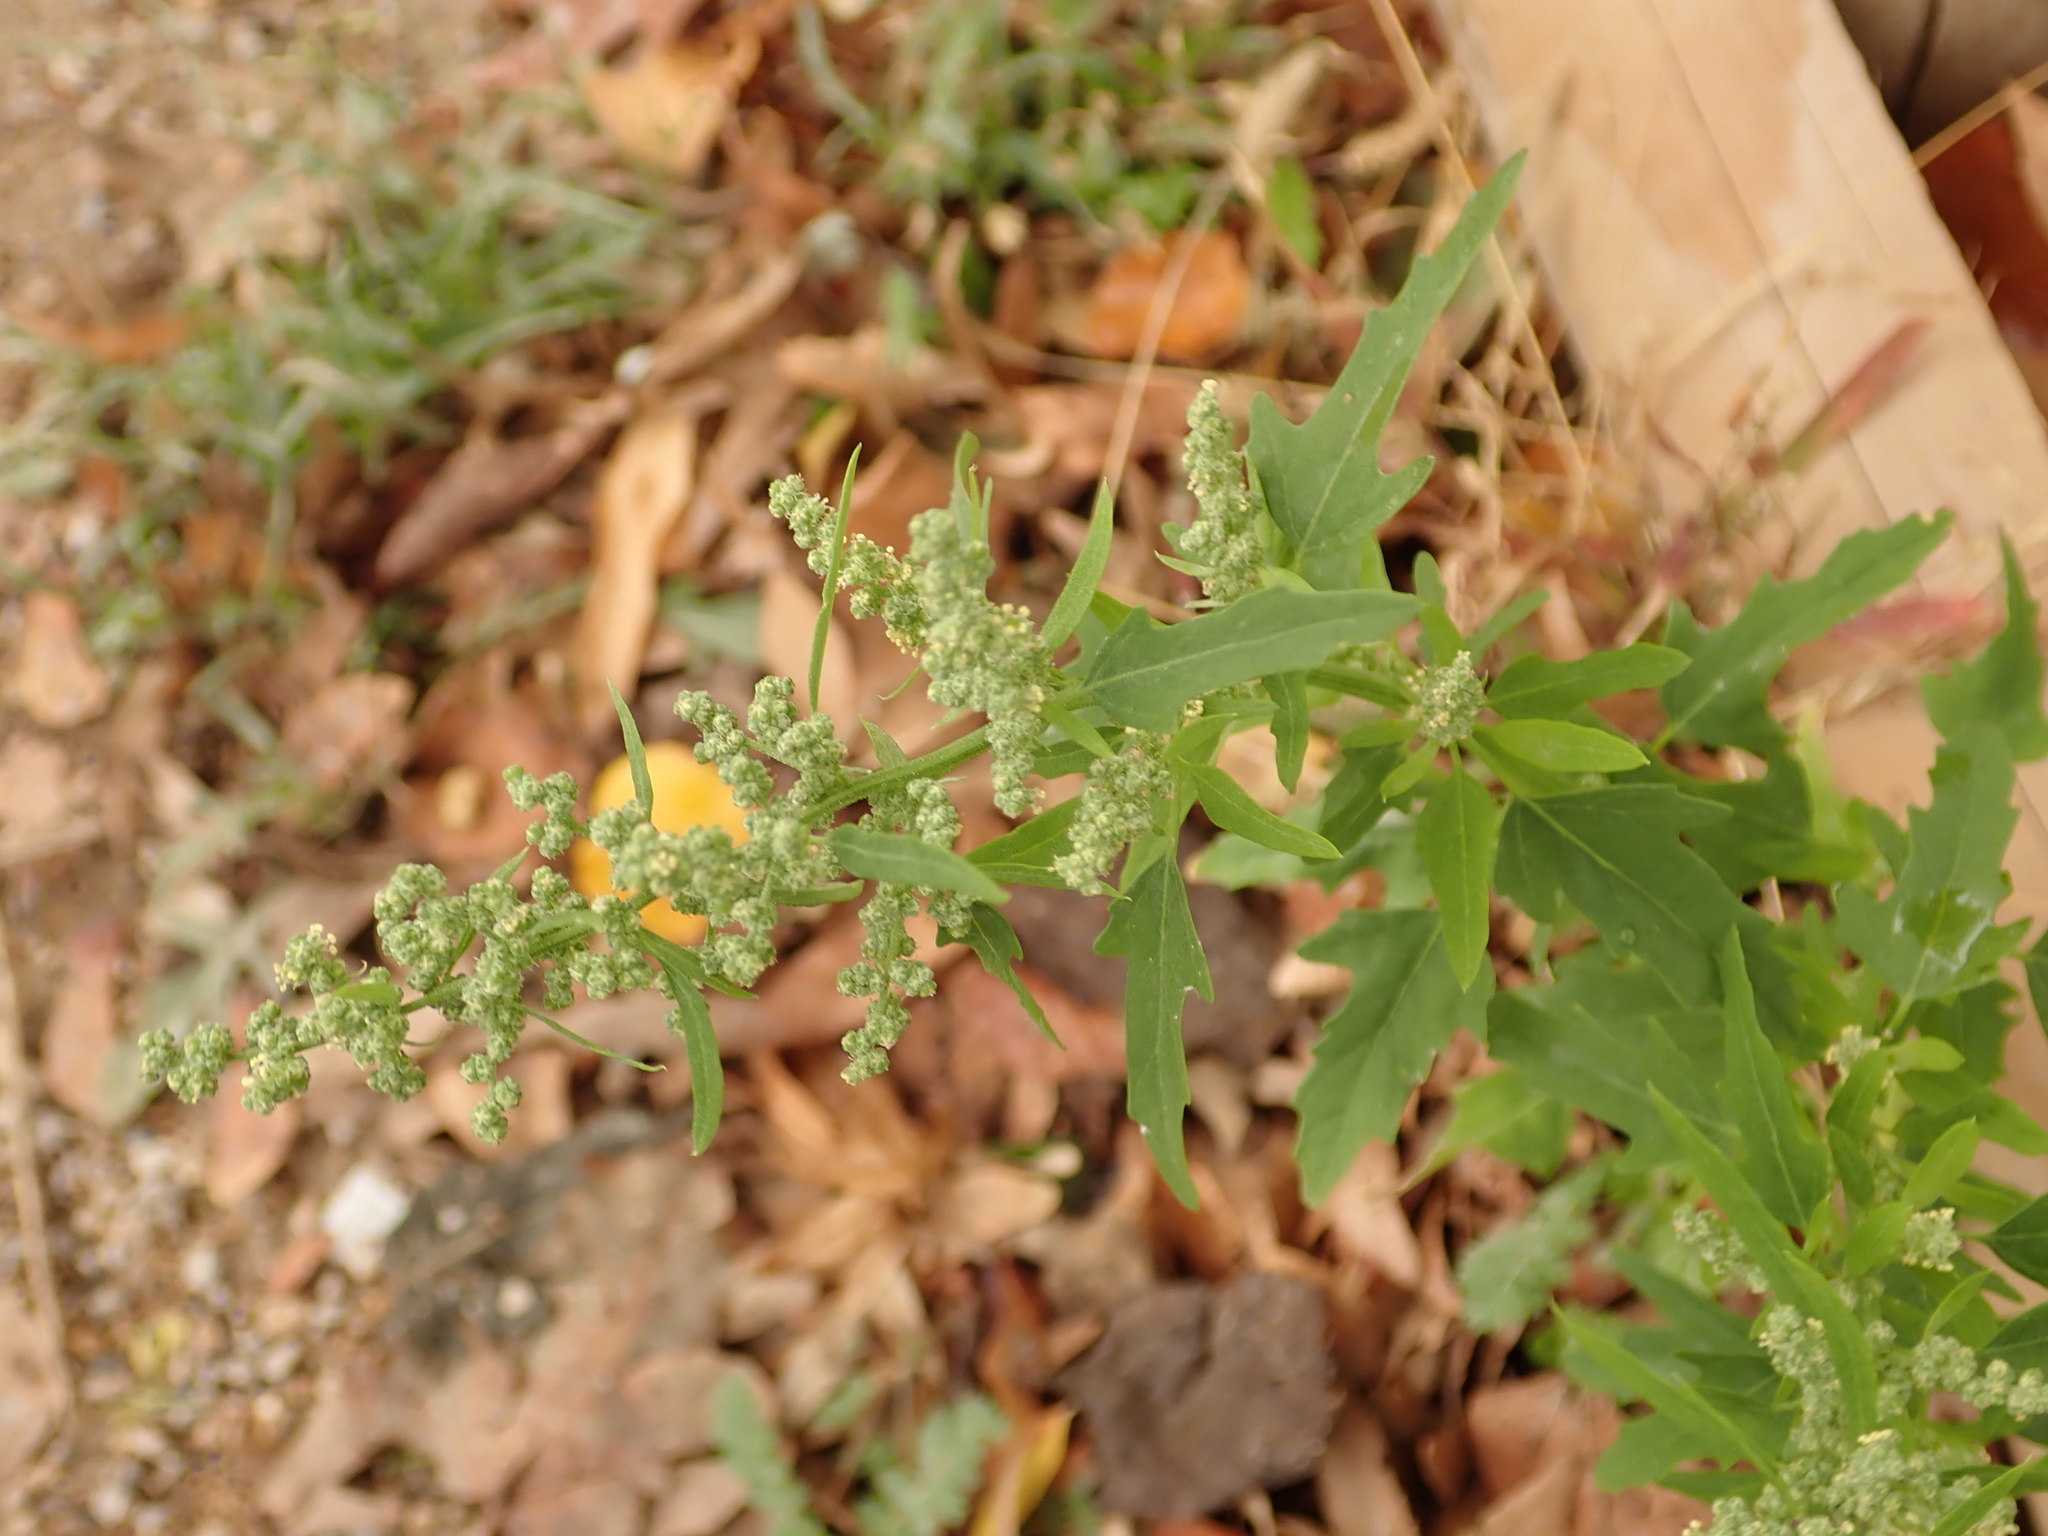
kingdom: Plantae
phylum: Tracheophyta
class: Magnoliopsida
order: Caryophyllales
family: Amaranthaceae
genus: Chenopodium
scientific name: Chenopodium ficifolium
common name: Fig-leaved goosefoot
